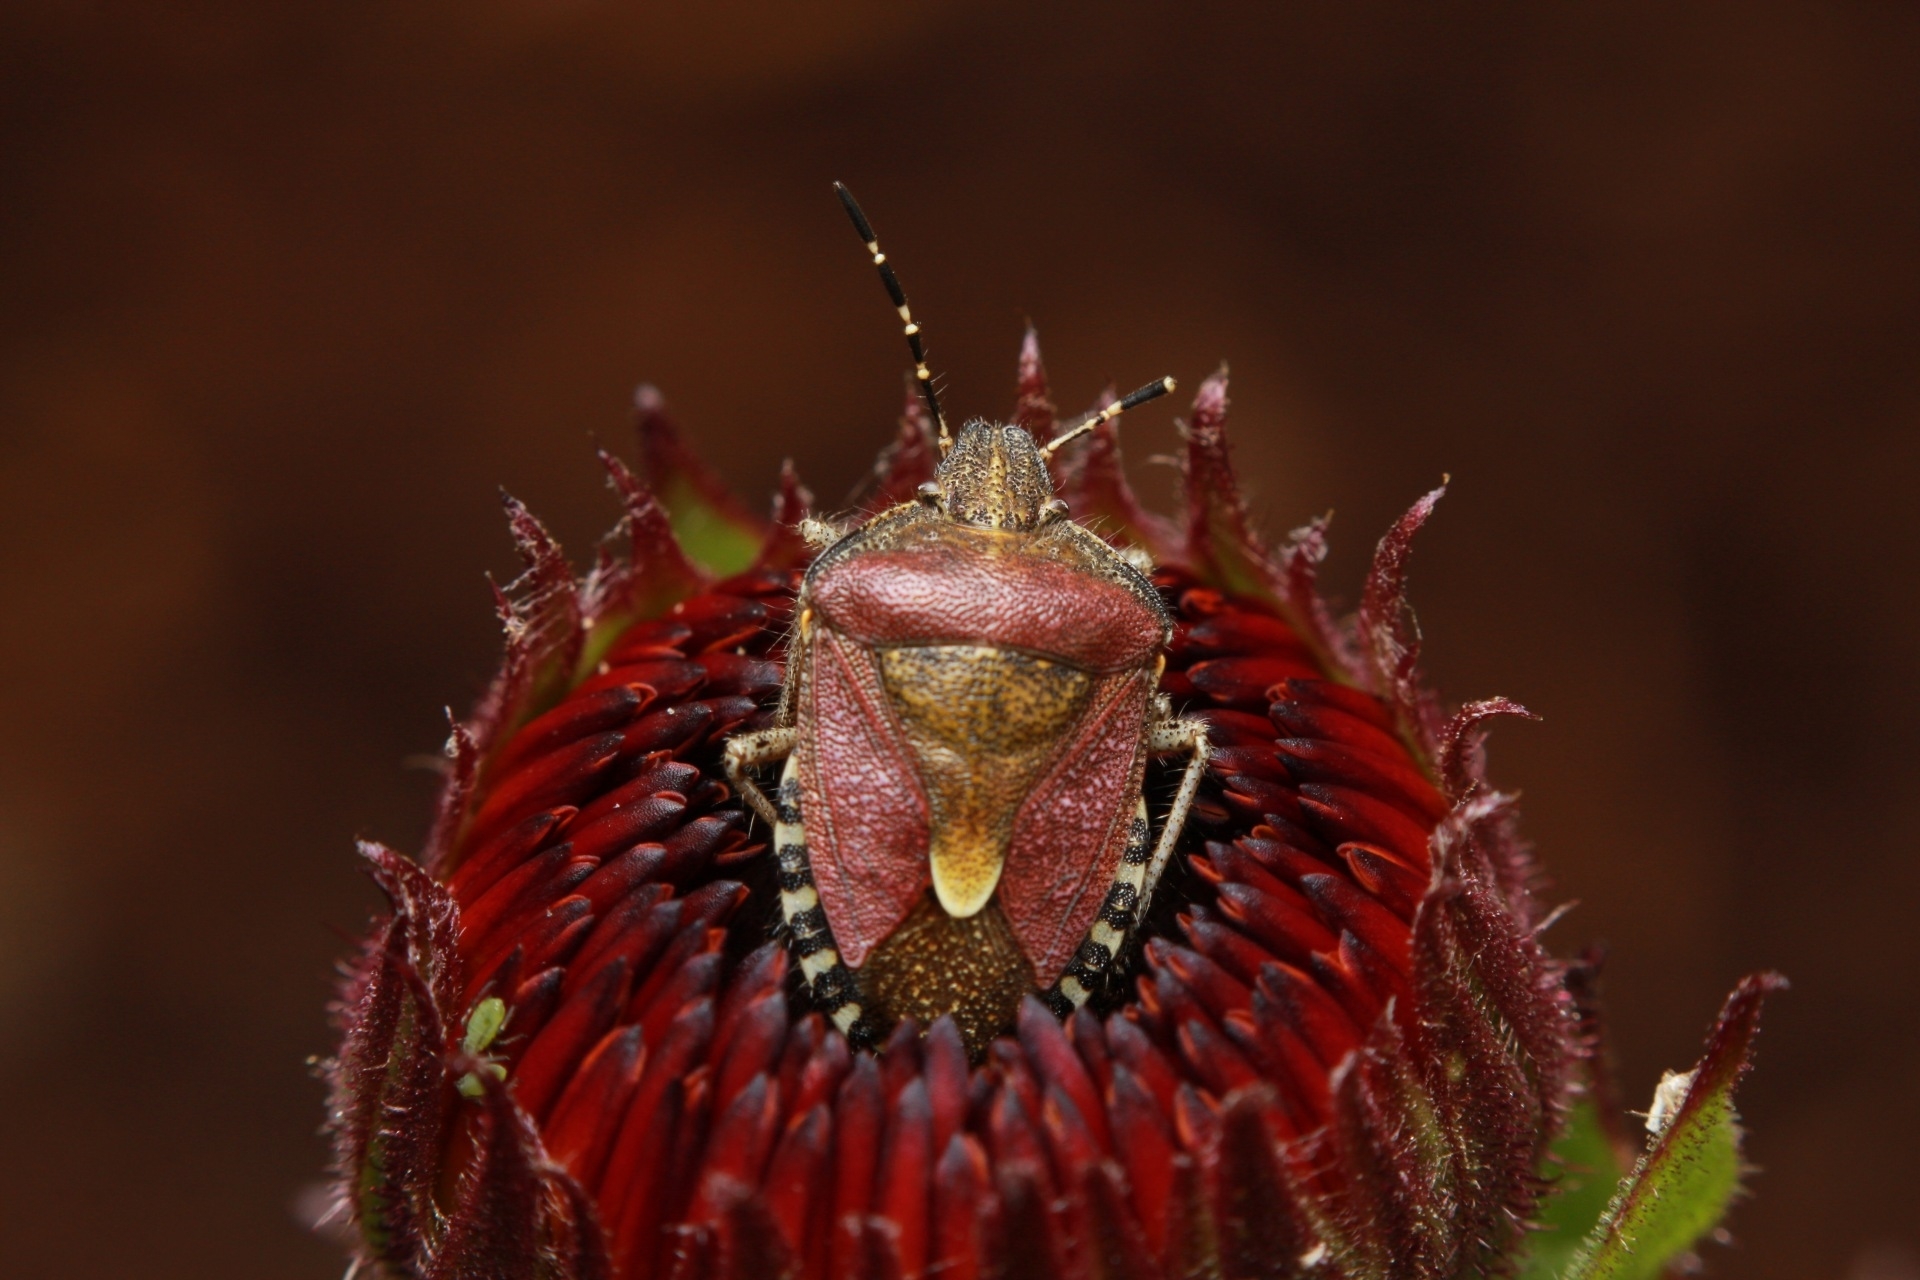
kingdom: Animalia
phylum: Arthropoda
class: Insecta
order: Hemiptera
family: Pentatomidae
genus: Dolycoris
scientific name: Dolycoris baccarum
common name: Sloe bug
